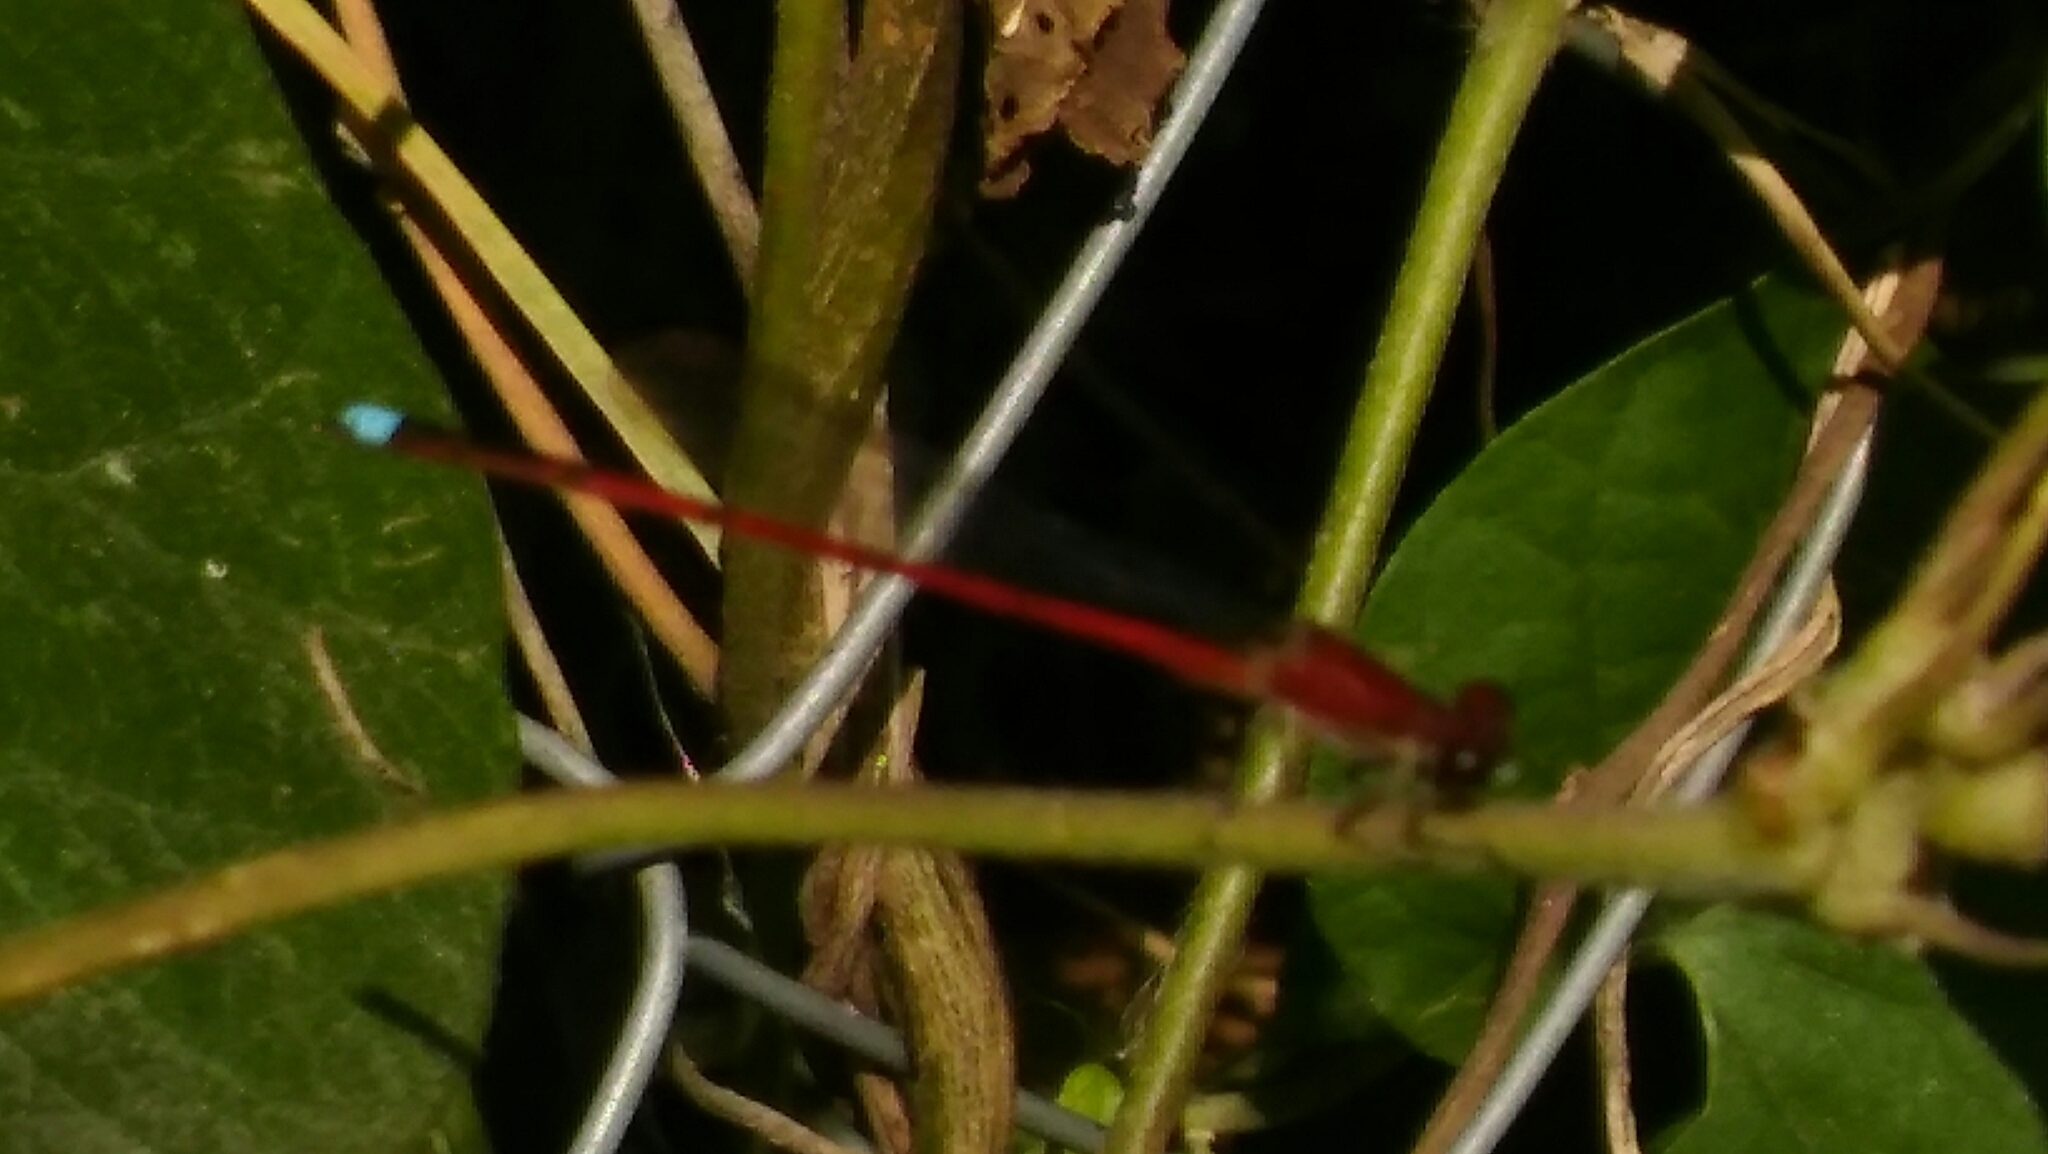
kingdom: Animalia
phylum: Arthropoda
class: Insecta
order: Odonata
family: Coenagrionidae
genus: Oxyagrion
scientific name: Oxyagrion terminale
